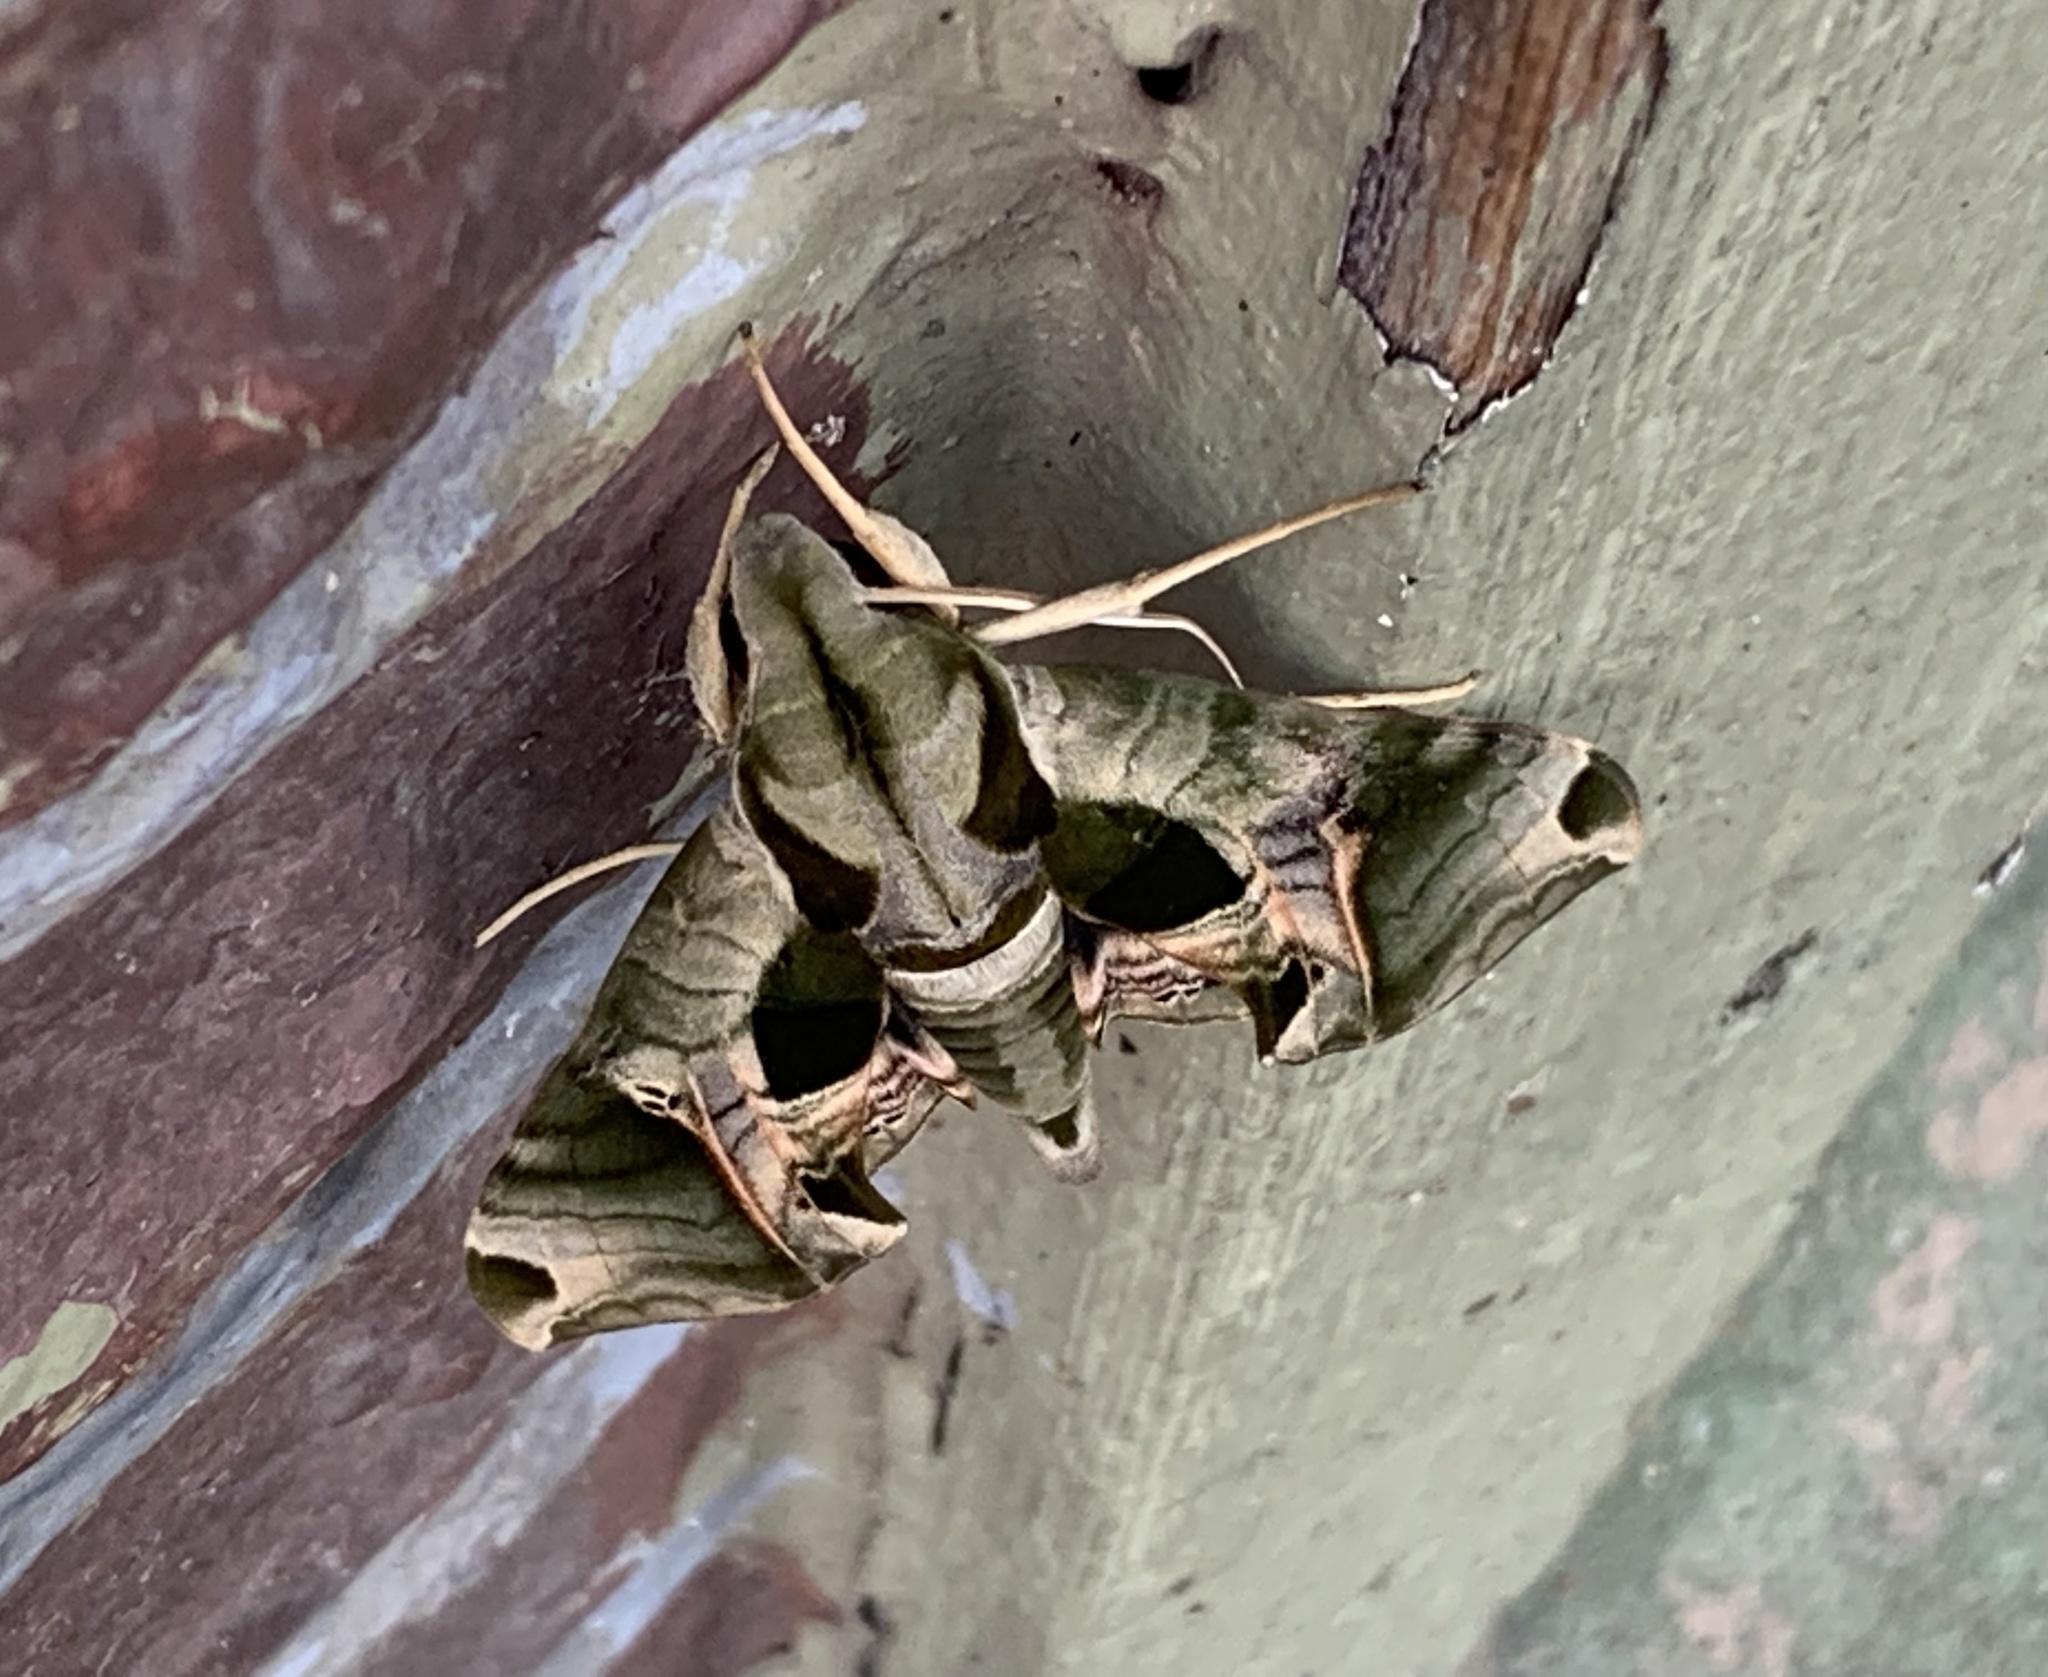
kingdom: Animalia
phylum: Arthropoda
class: Insecta
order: Lepidoptera
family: Sphingidae
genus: Eumorpha
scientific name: Eumorpha pandorus
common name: Pandora sphinx
